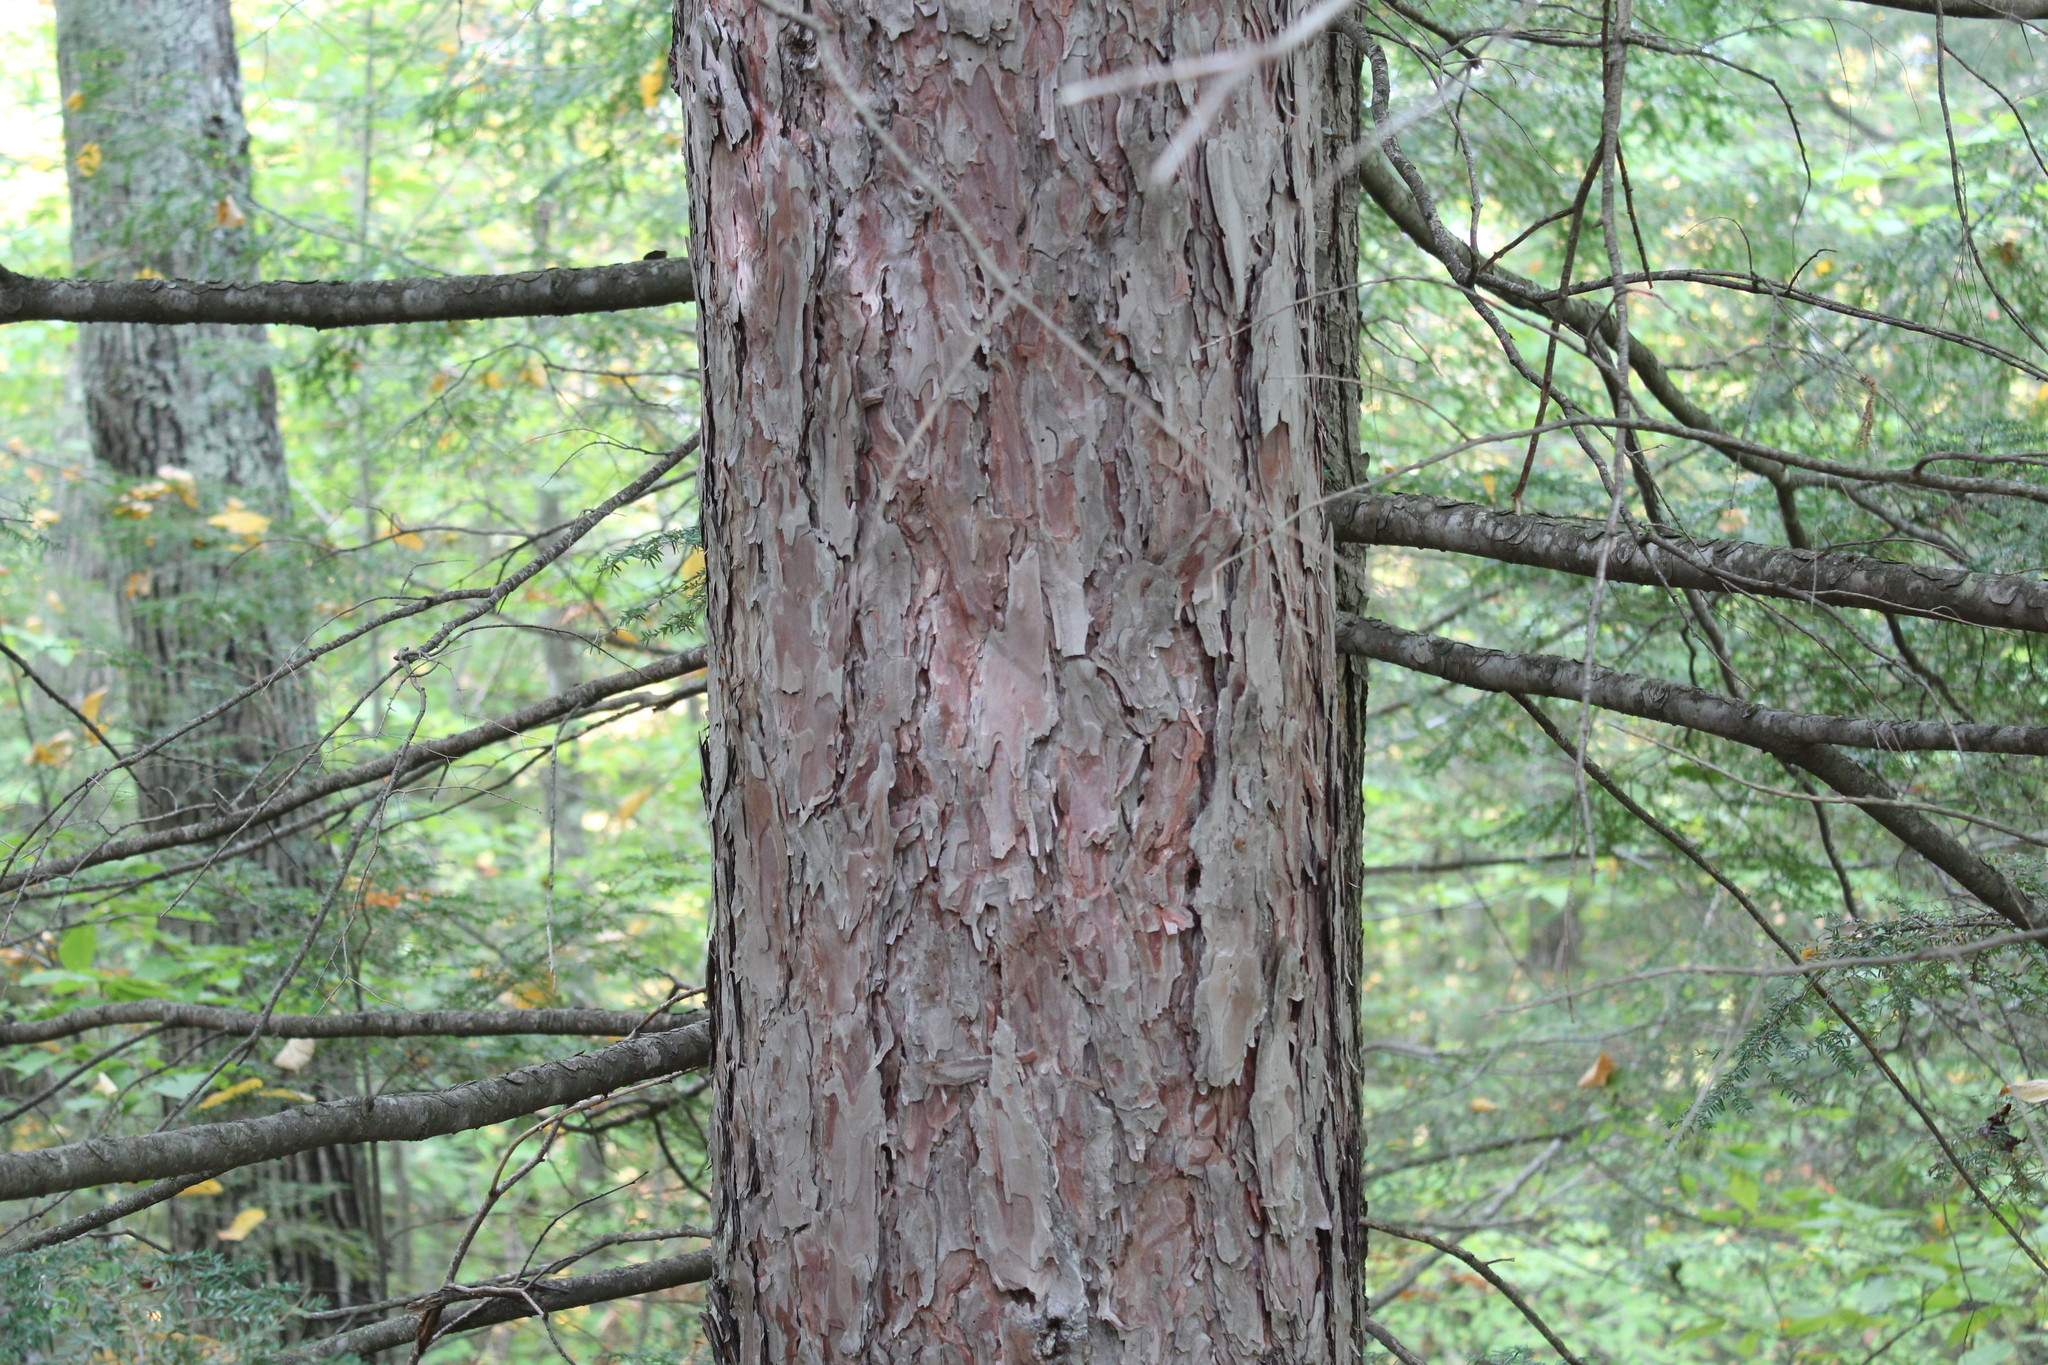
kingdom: Plantae
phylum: Tracheophyta
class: Pinopsida
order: Pinales
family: Pinaceae
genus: Pinus
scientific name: Pinus resinosa
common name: Norway pine
